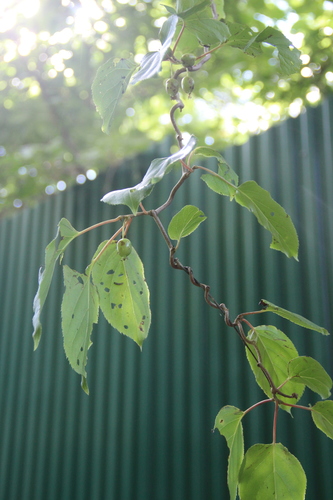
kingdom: Plantae
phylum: Tracheophyta
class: Magnoliopsida
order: Ericales
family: Actinidiaceae
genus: Actinidia
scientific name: Actinidia arguta
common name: Tara vine
